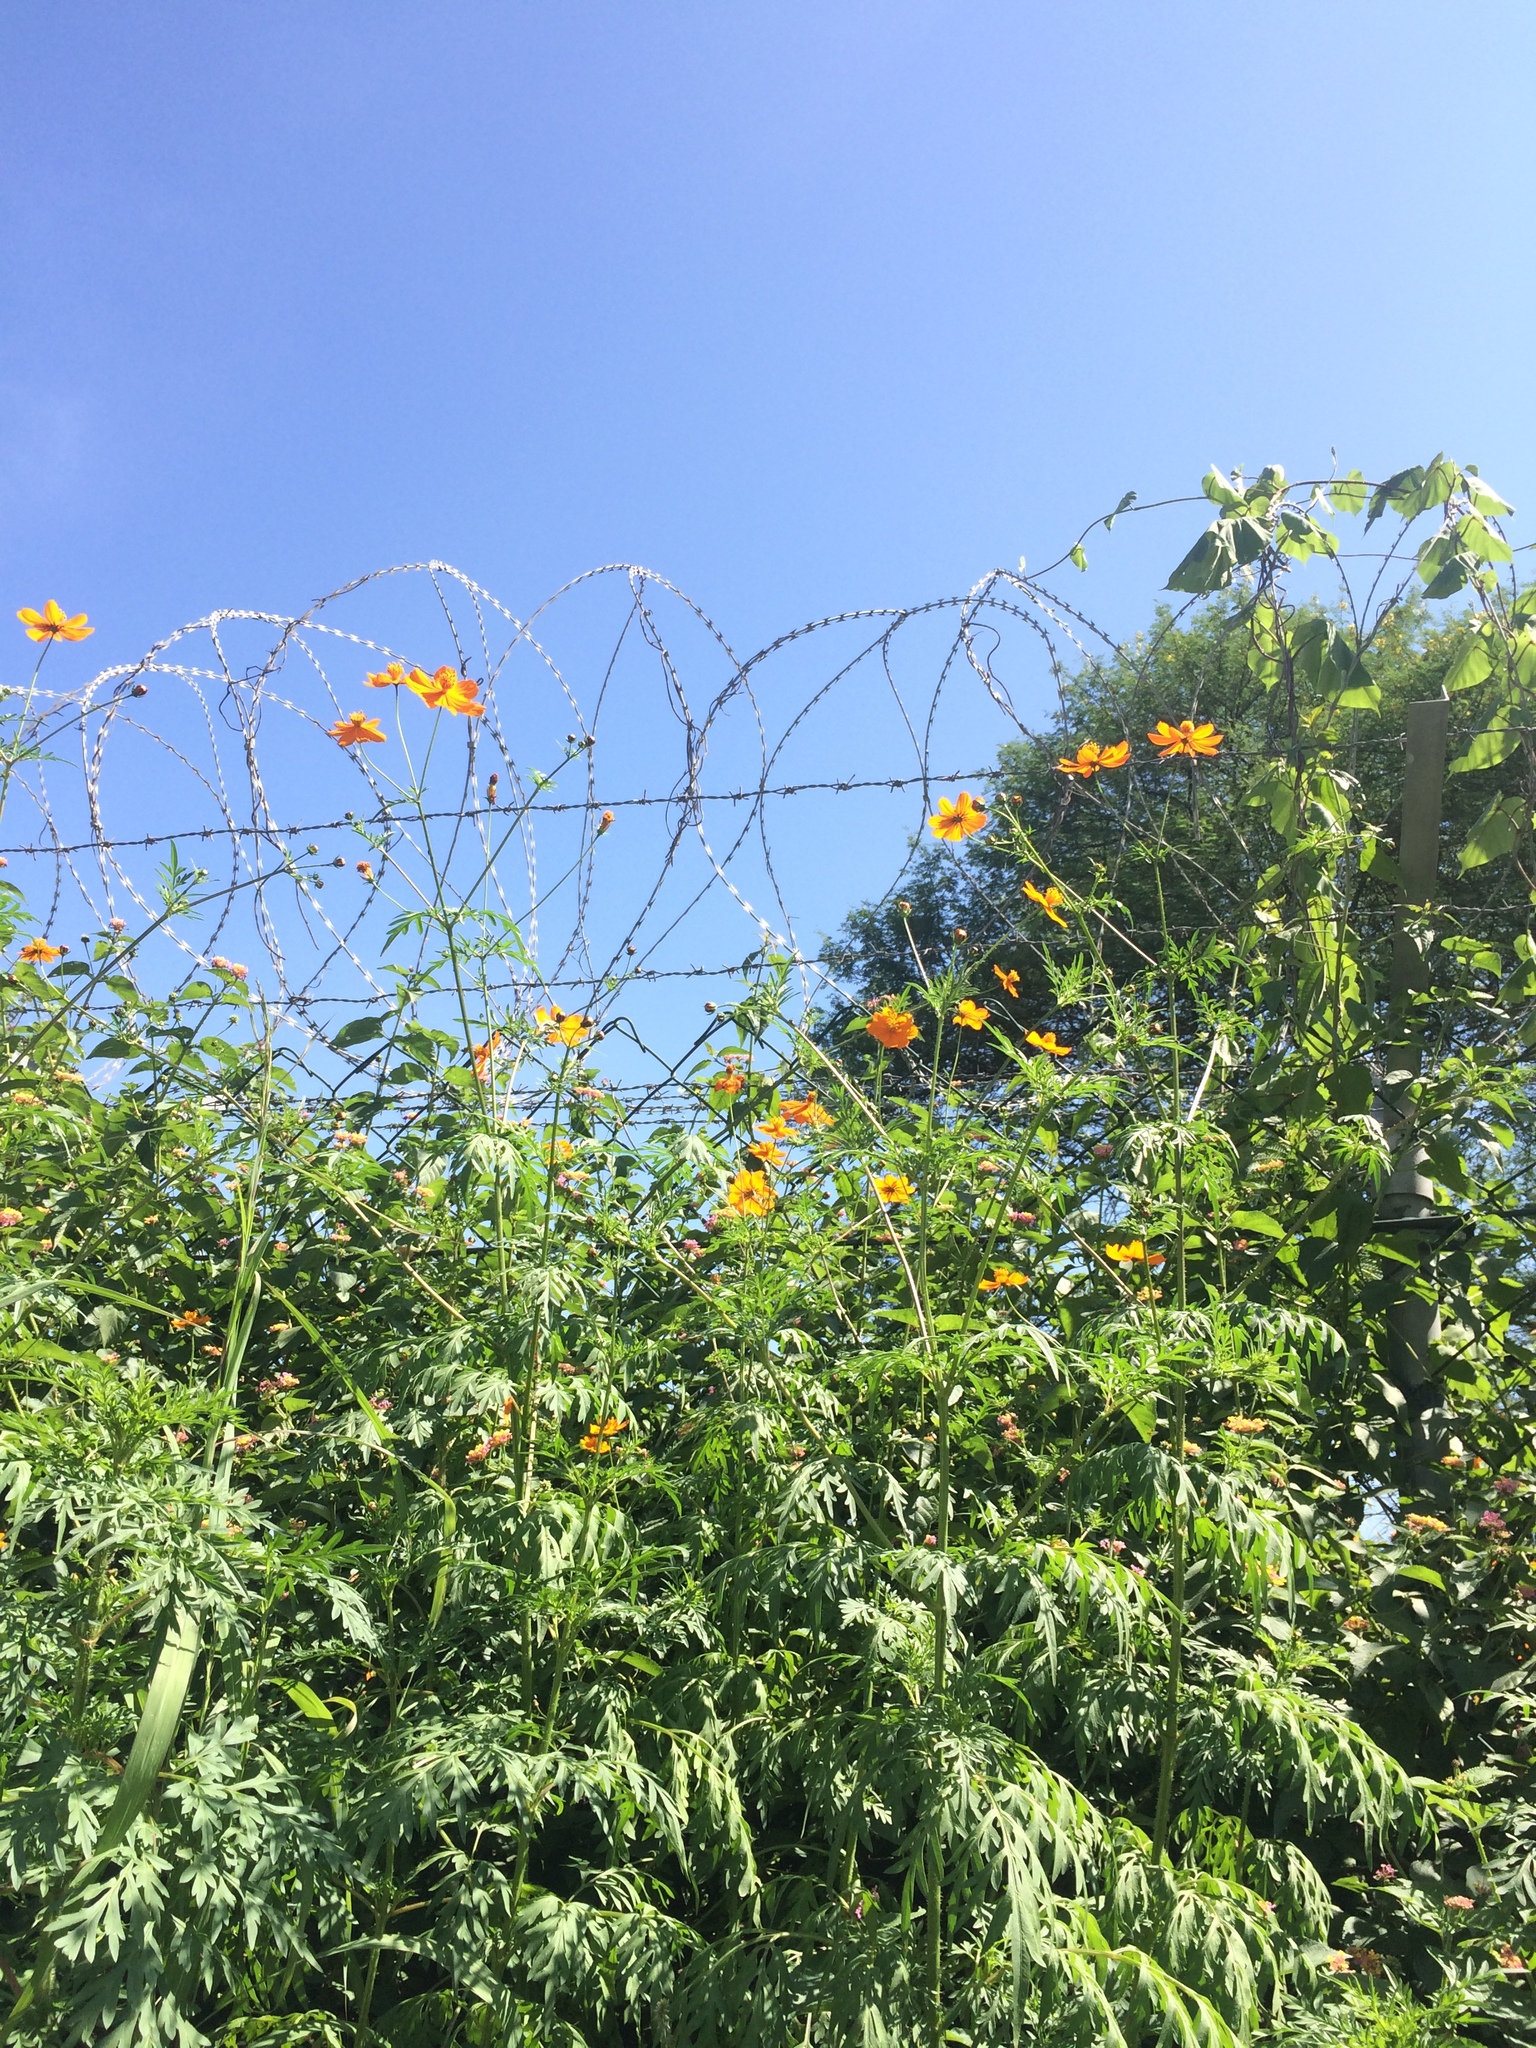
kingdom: Plantae
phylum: Tracheophyta
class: Magnoliopsida
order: Asterales
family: Asteraceae
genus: Cosmos
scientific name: Cosmos sulphureus
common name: Sulphur cosmos
